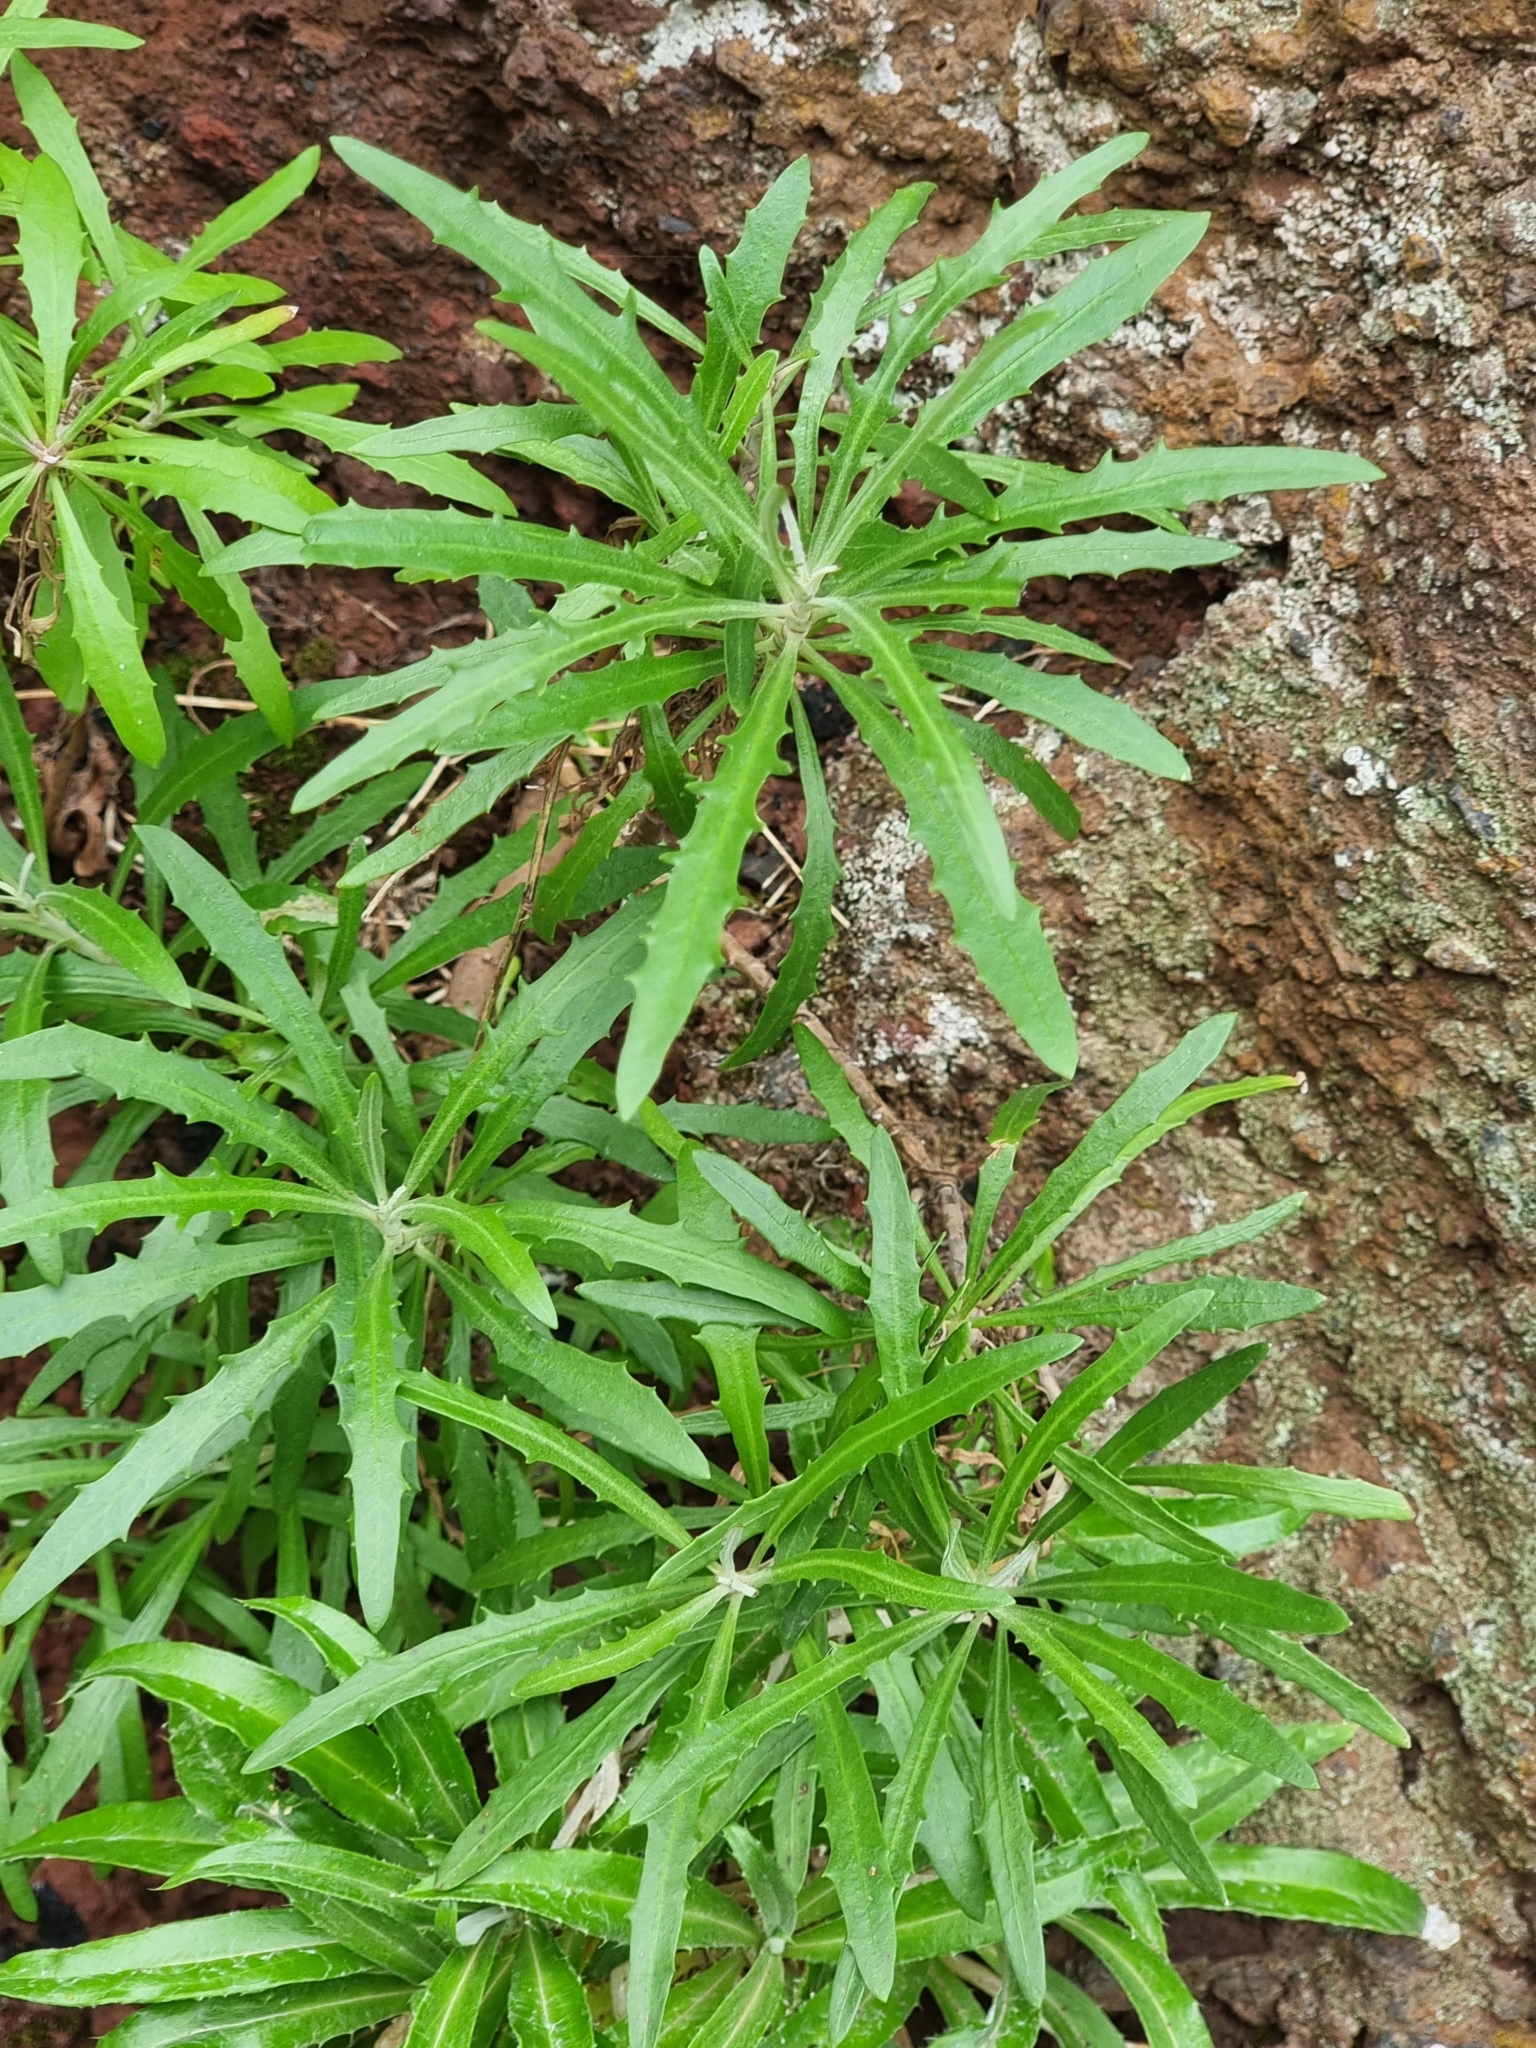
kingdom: Plantae
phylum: Tracheophyta
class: Magnoliopsida
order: Asterales
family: Asteraceae
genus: Tolpis
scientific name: Tolpis succulenta
